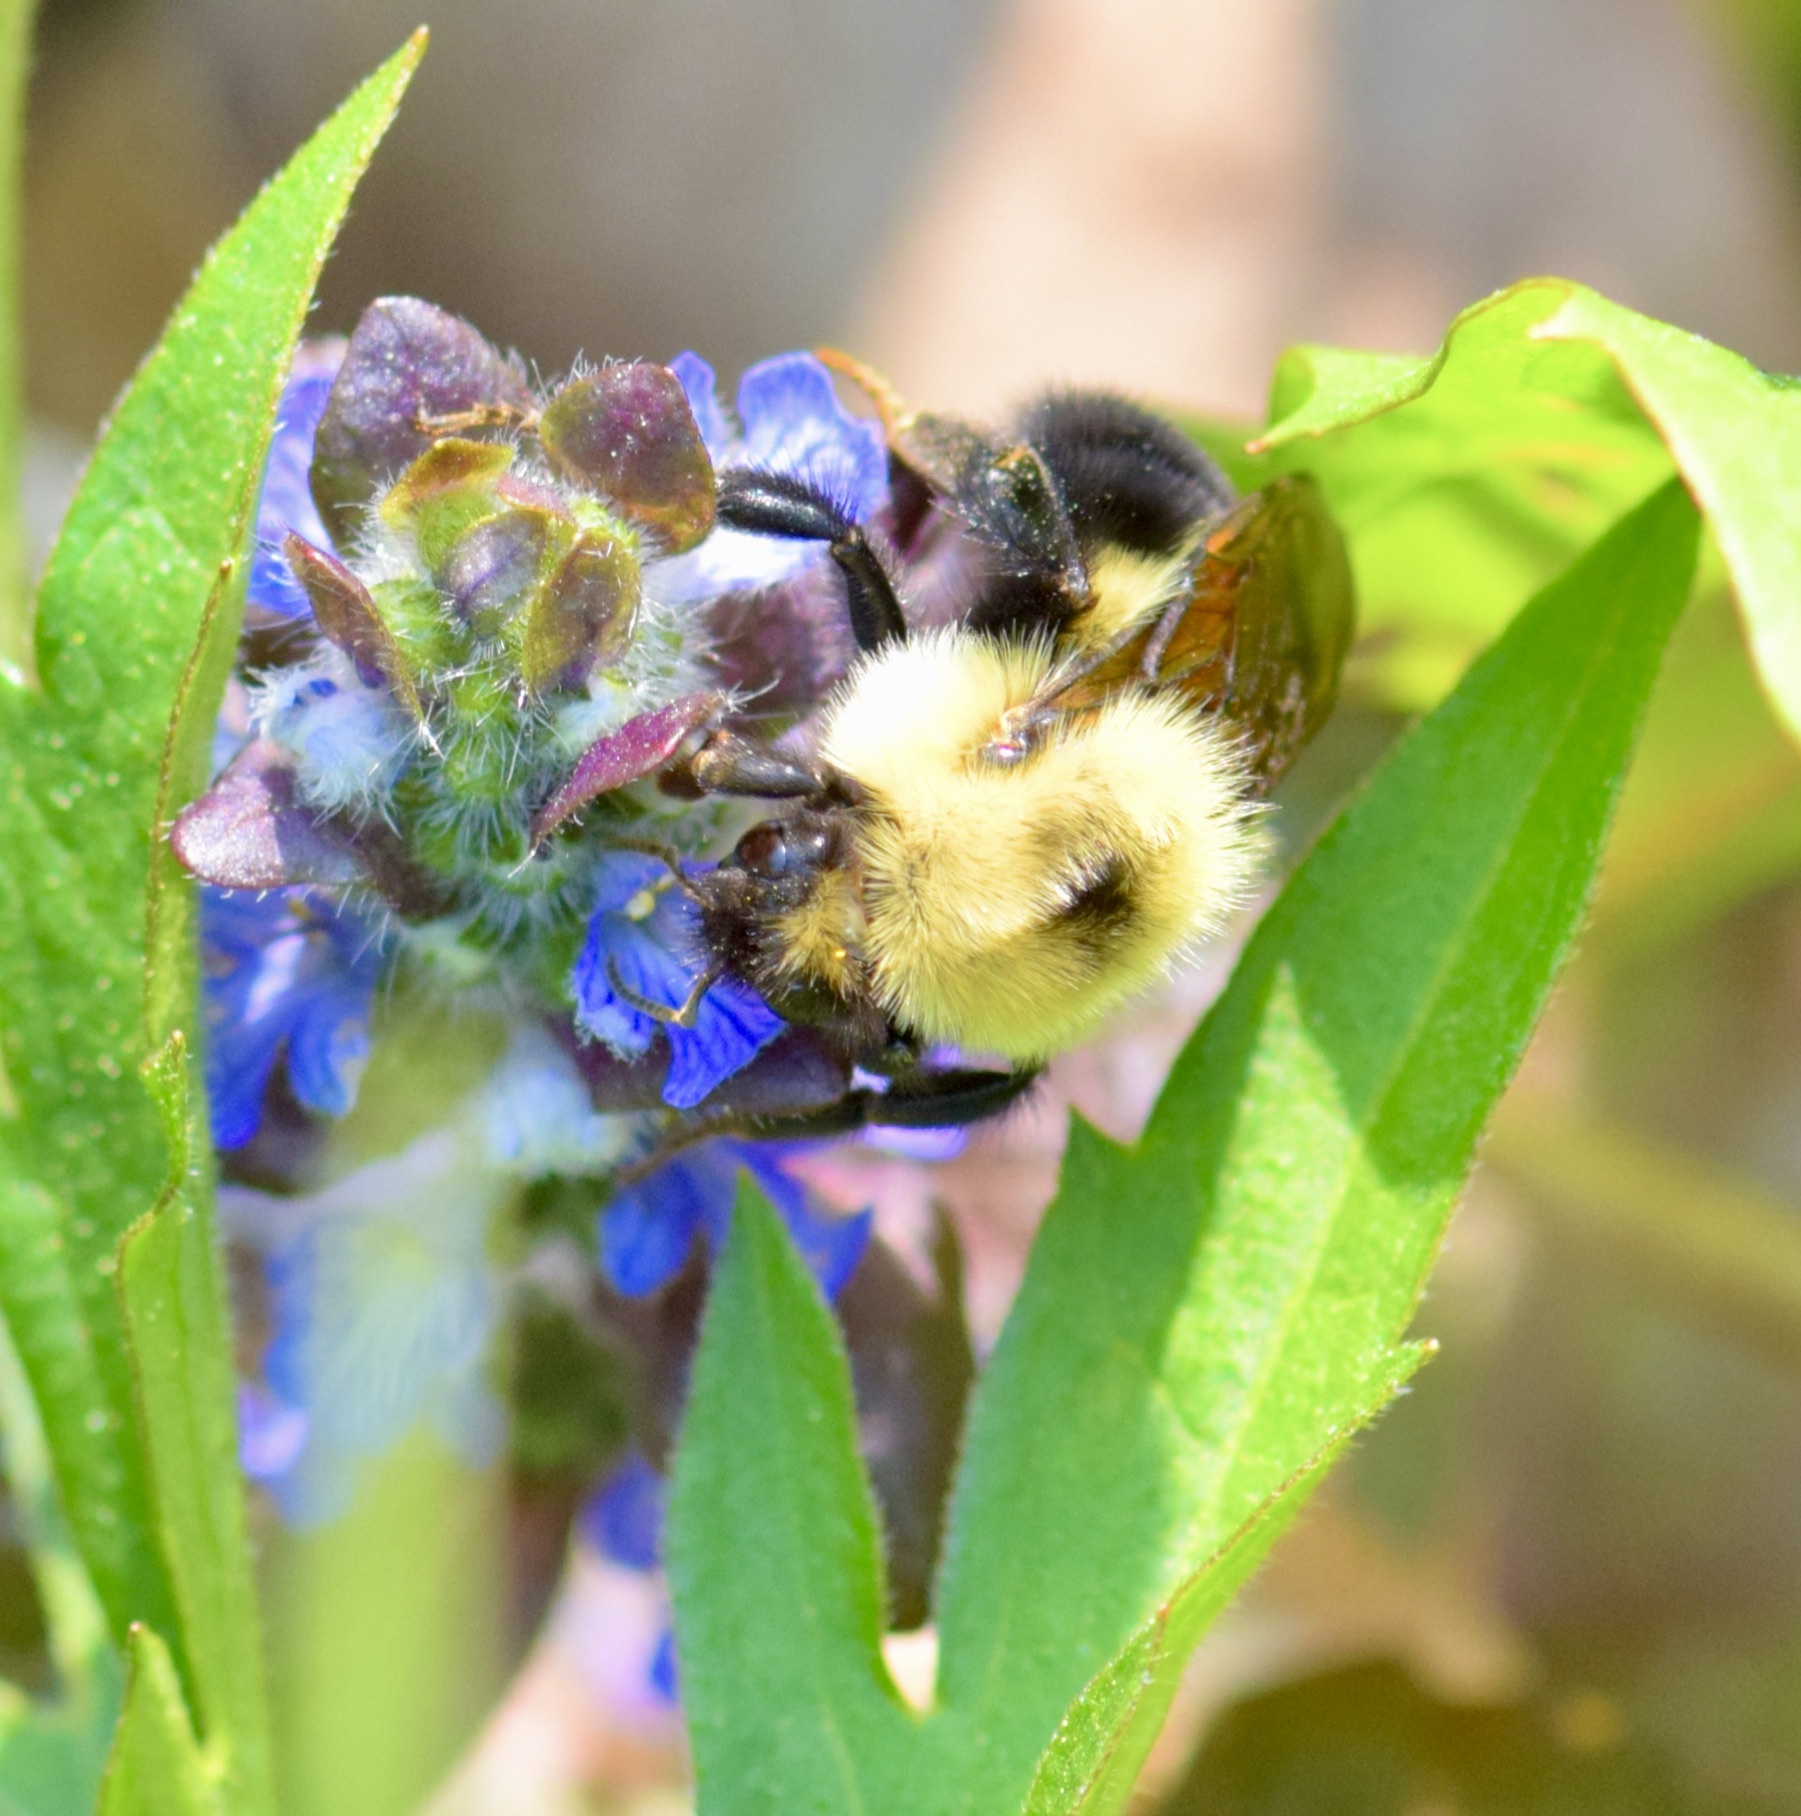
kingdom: Animalia
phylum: Arthropoda
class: Insecta
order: Hymenoptera
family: Apidae
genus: Bombus
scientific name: Bombus bimaculatus
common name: Two-spotted bumble bee
